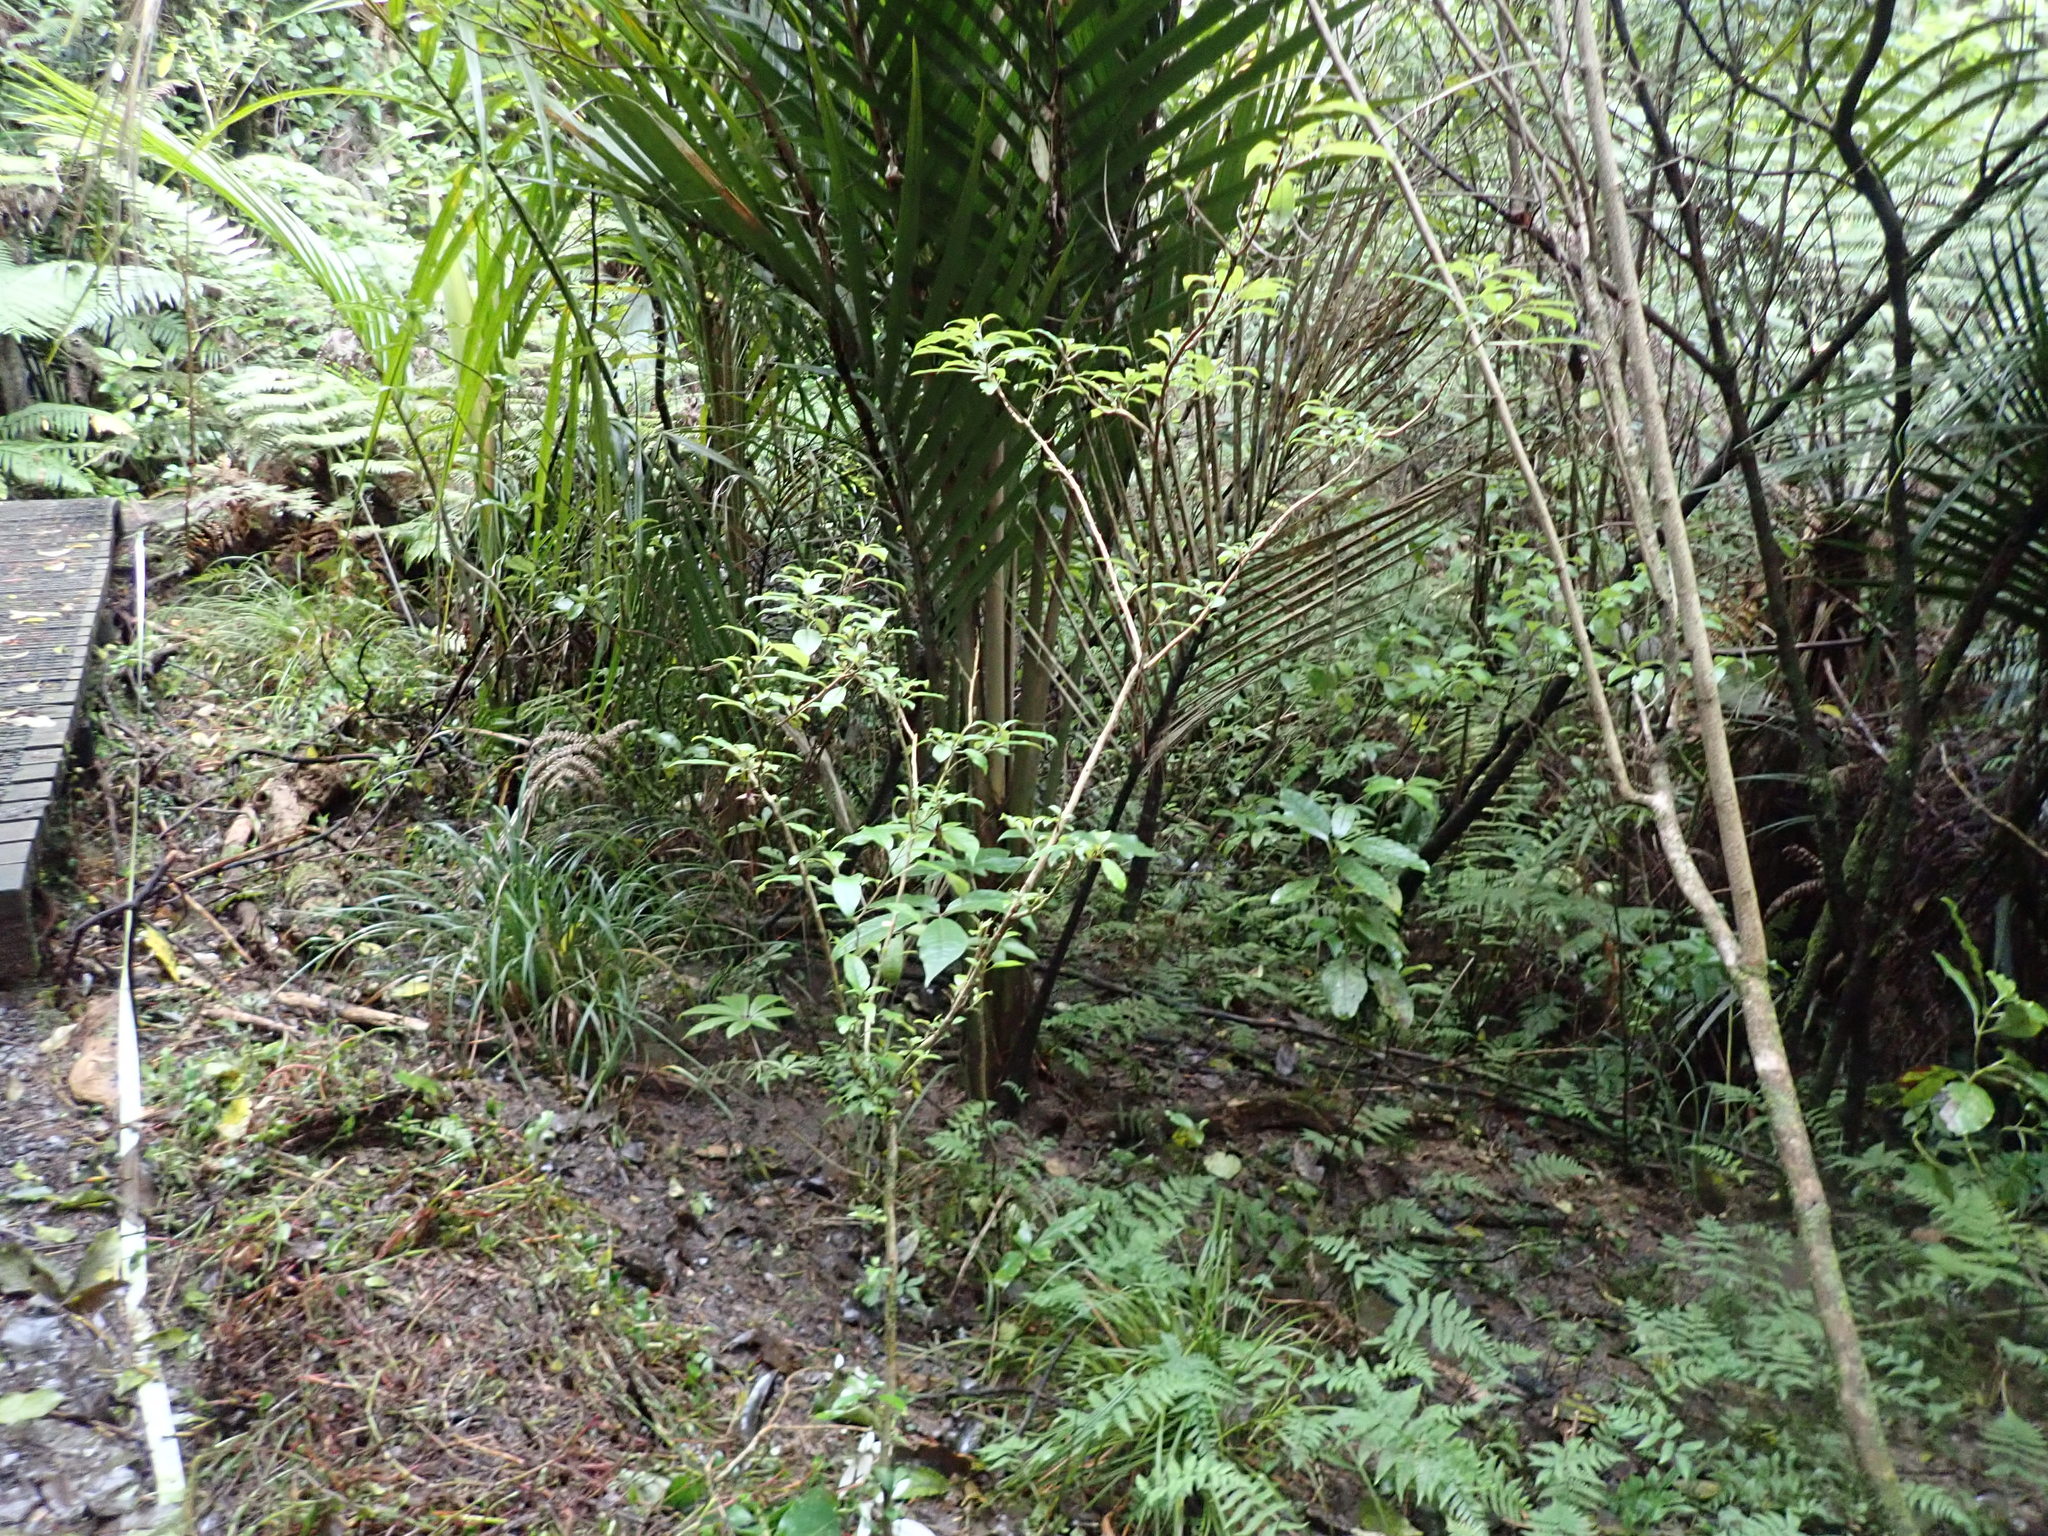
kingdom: Plantae
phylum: Tracheophyta
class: Liliopsida
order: Commelinales
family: Commelinaceae
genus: Tradescantia
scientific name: Tradescantia fluminensis
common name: Wandering-jew
